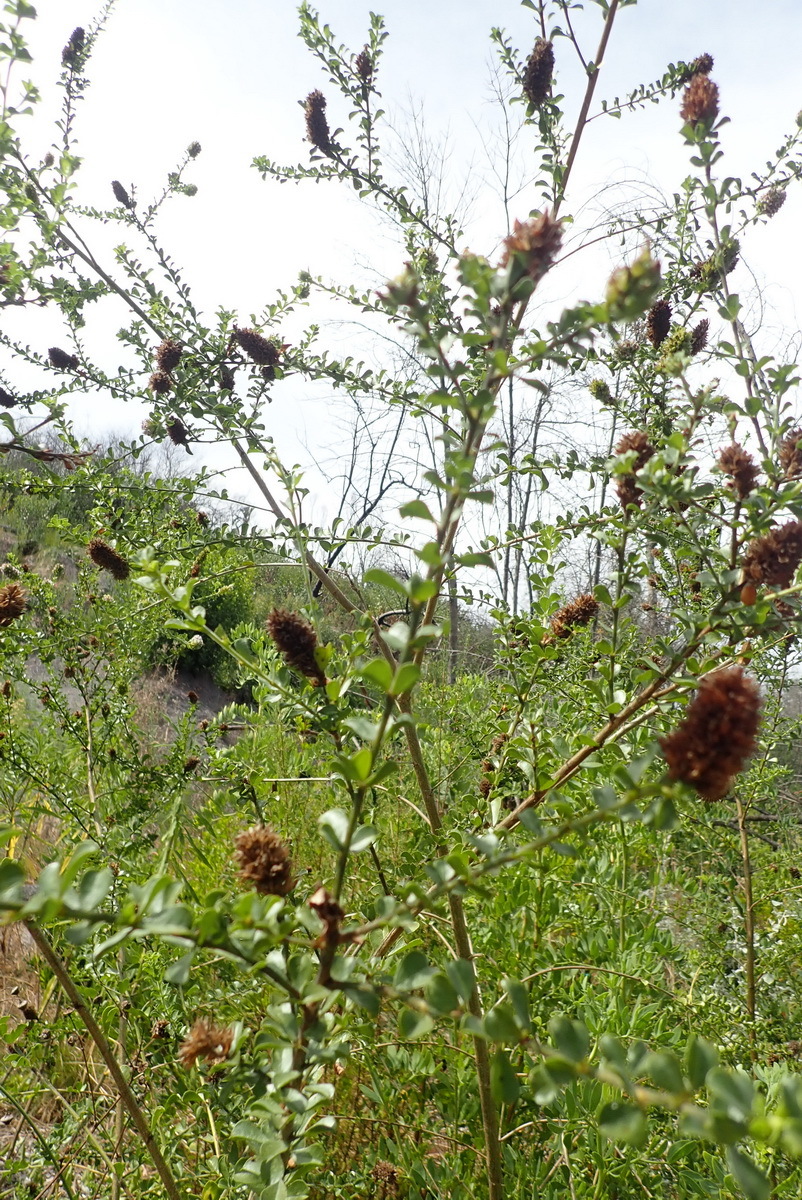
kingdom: Plantae
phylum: Tracheophyta
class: Magnoliopsida
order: Fabales
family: Fabaceae
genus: Psoralea
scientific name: Psoralea stachyera
